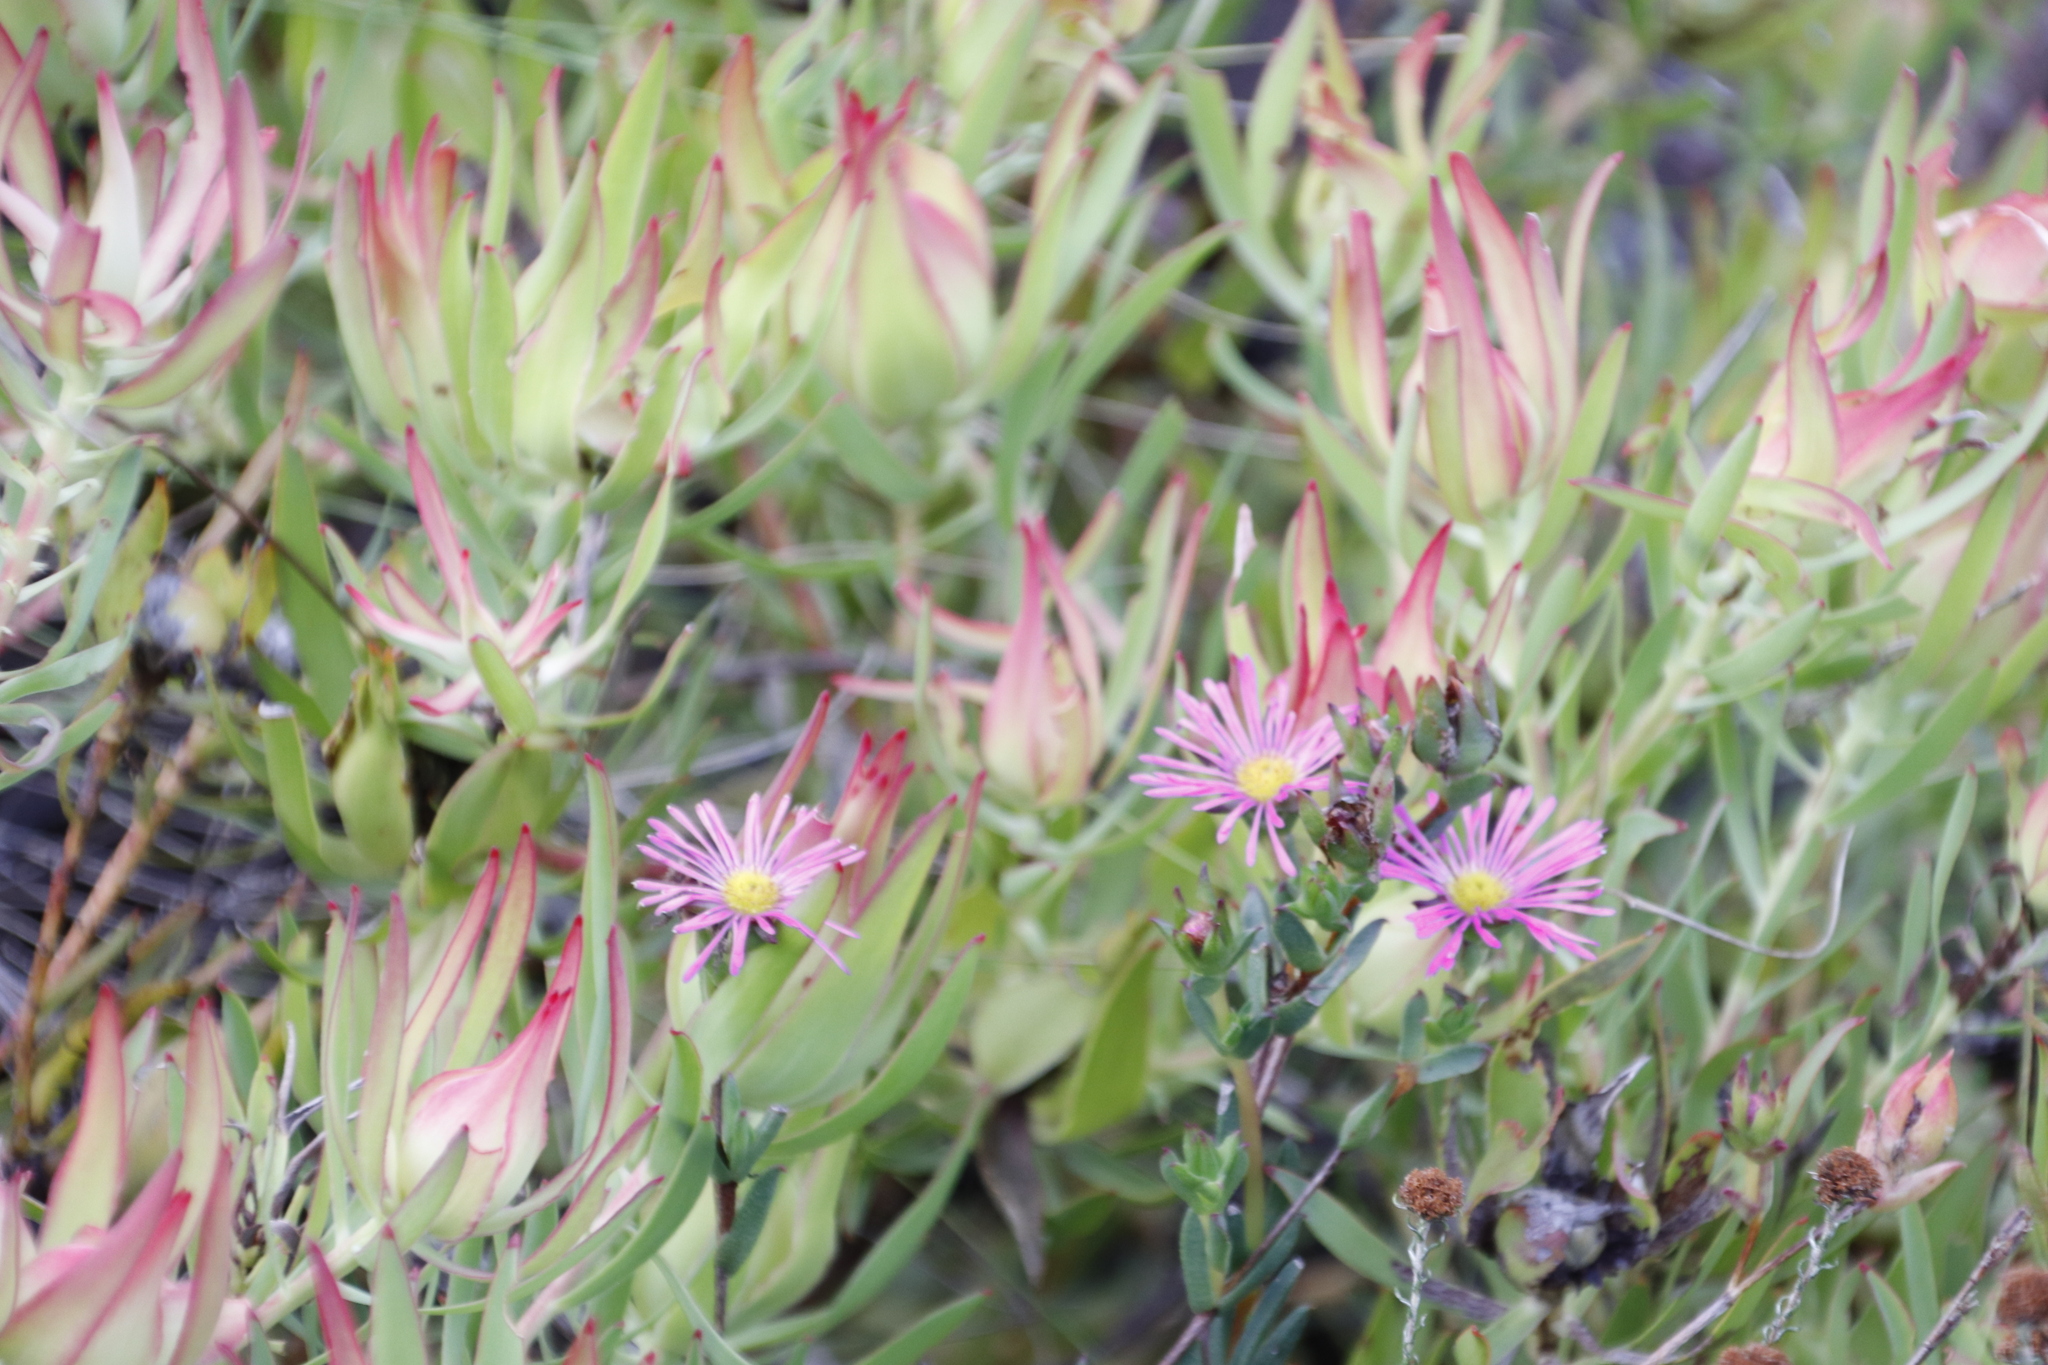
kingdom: Plantae
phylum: Tracheophyta
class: Magnoliopsida
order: Proteales
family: Proteaceae
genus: Leucadendron
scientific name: Leucadendron salignum
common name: Common sunshine conebush
